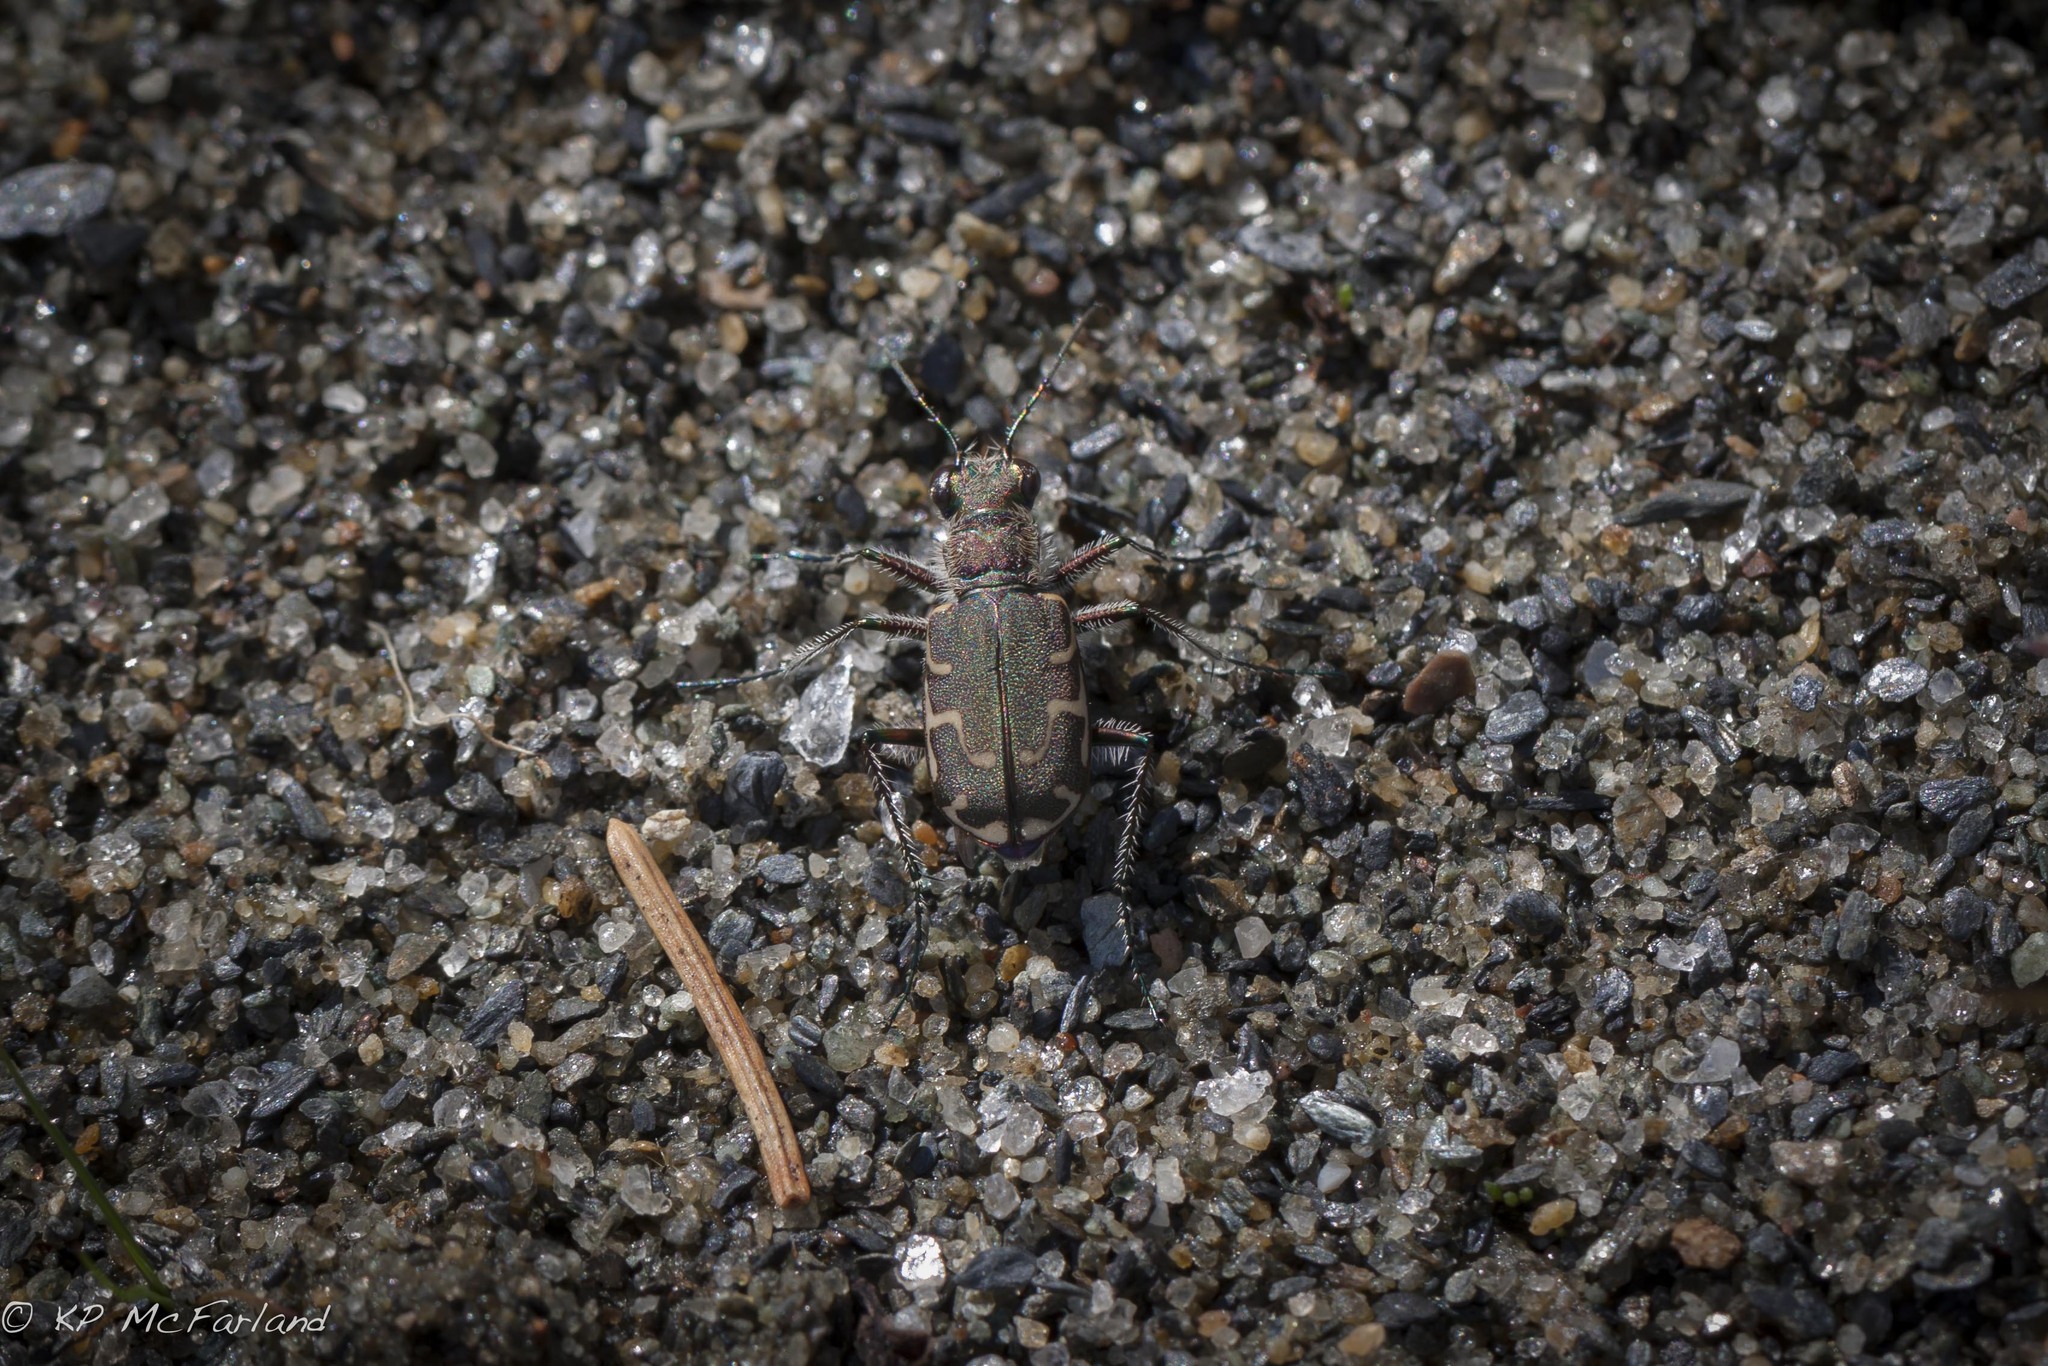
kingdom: Animalia
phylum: Arthropoda
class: Insecta
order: Coleoptera
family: Carabidae
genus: Cicindela
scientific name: Cicindela repanda
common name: Bronzed tiger beetle
